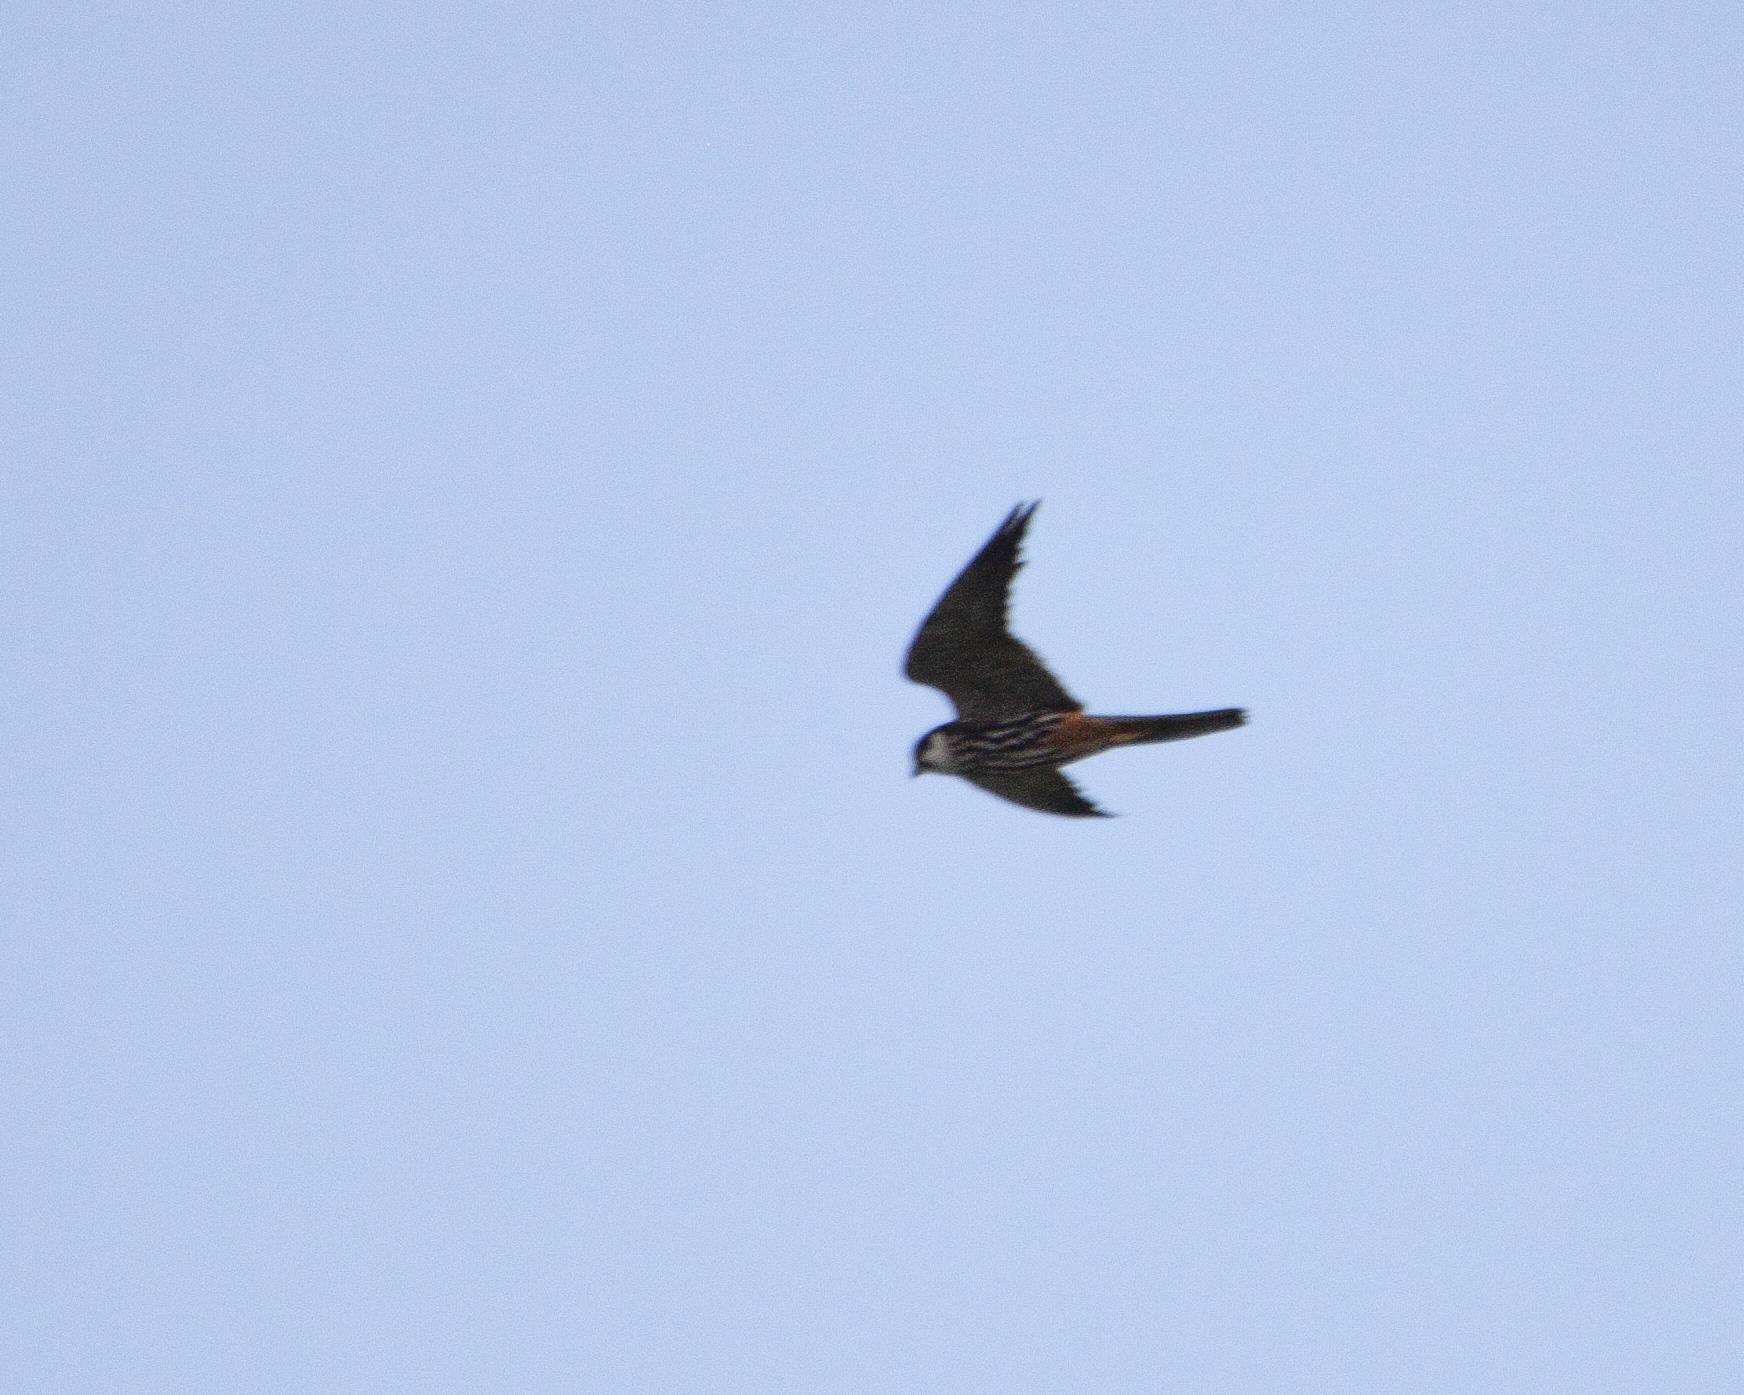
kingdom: Animalia
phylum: Chordata
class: Aves
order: Falconiformes
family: Falconidae
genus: Falco
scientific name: Falco subbuteo
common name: Eurasian hobby
